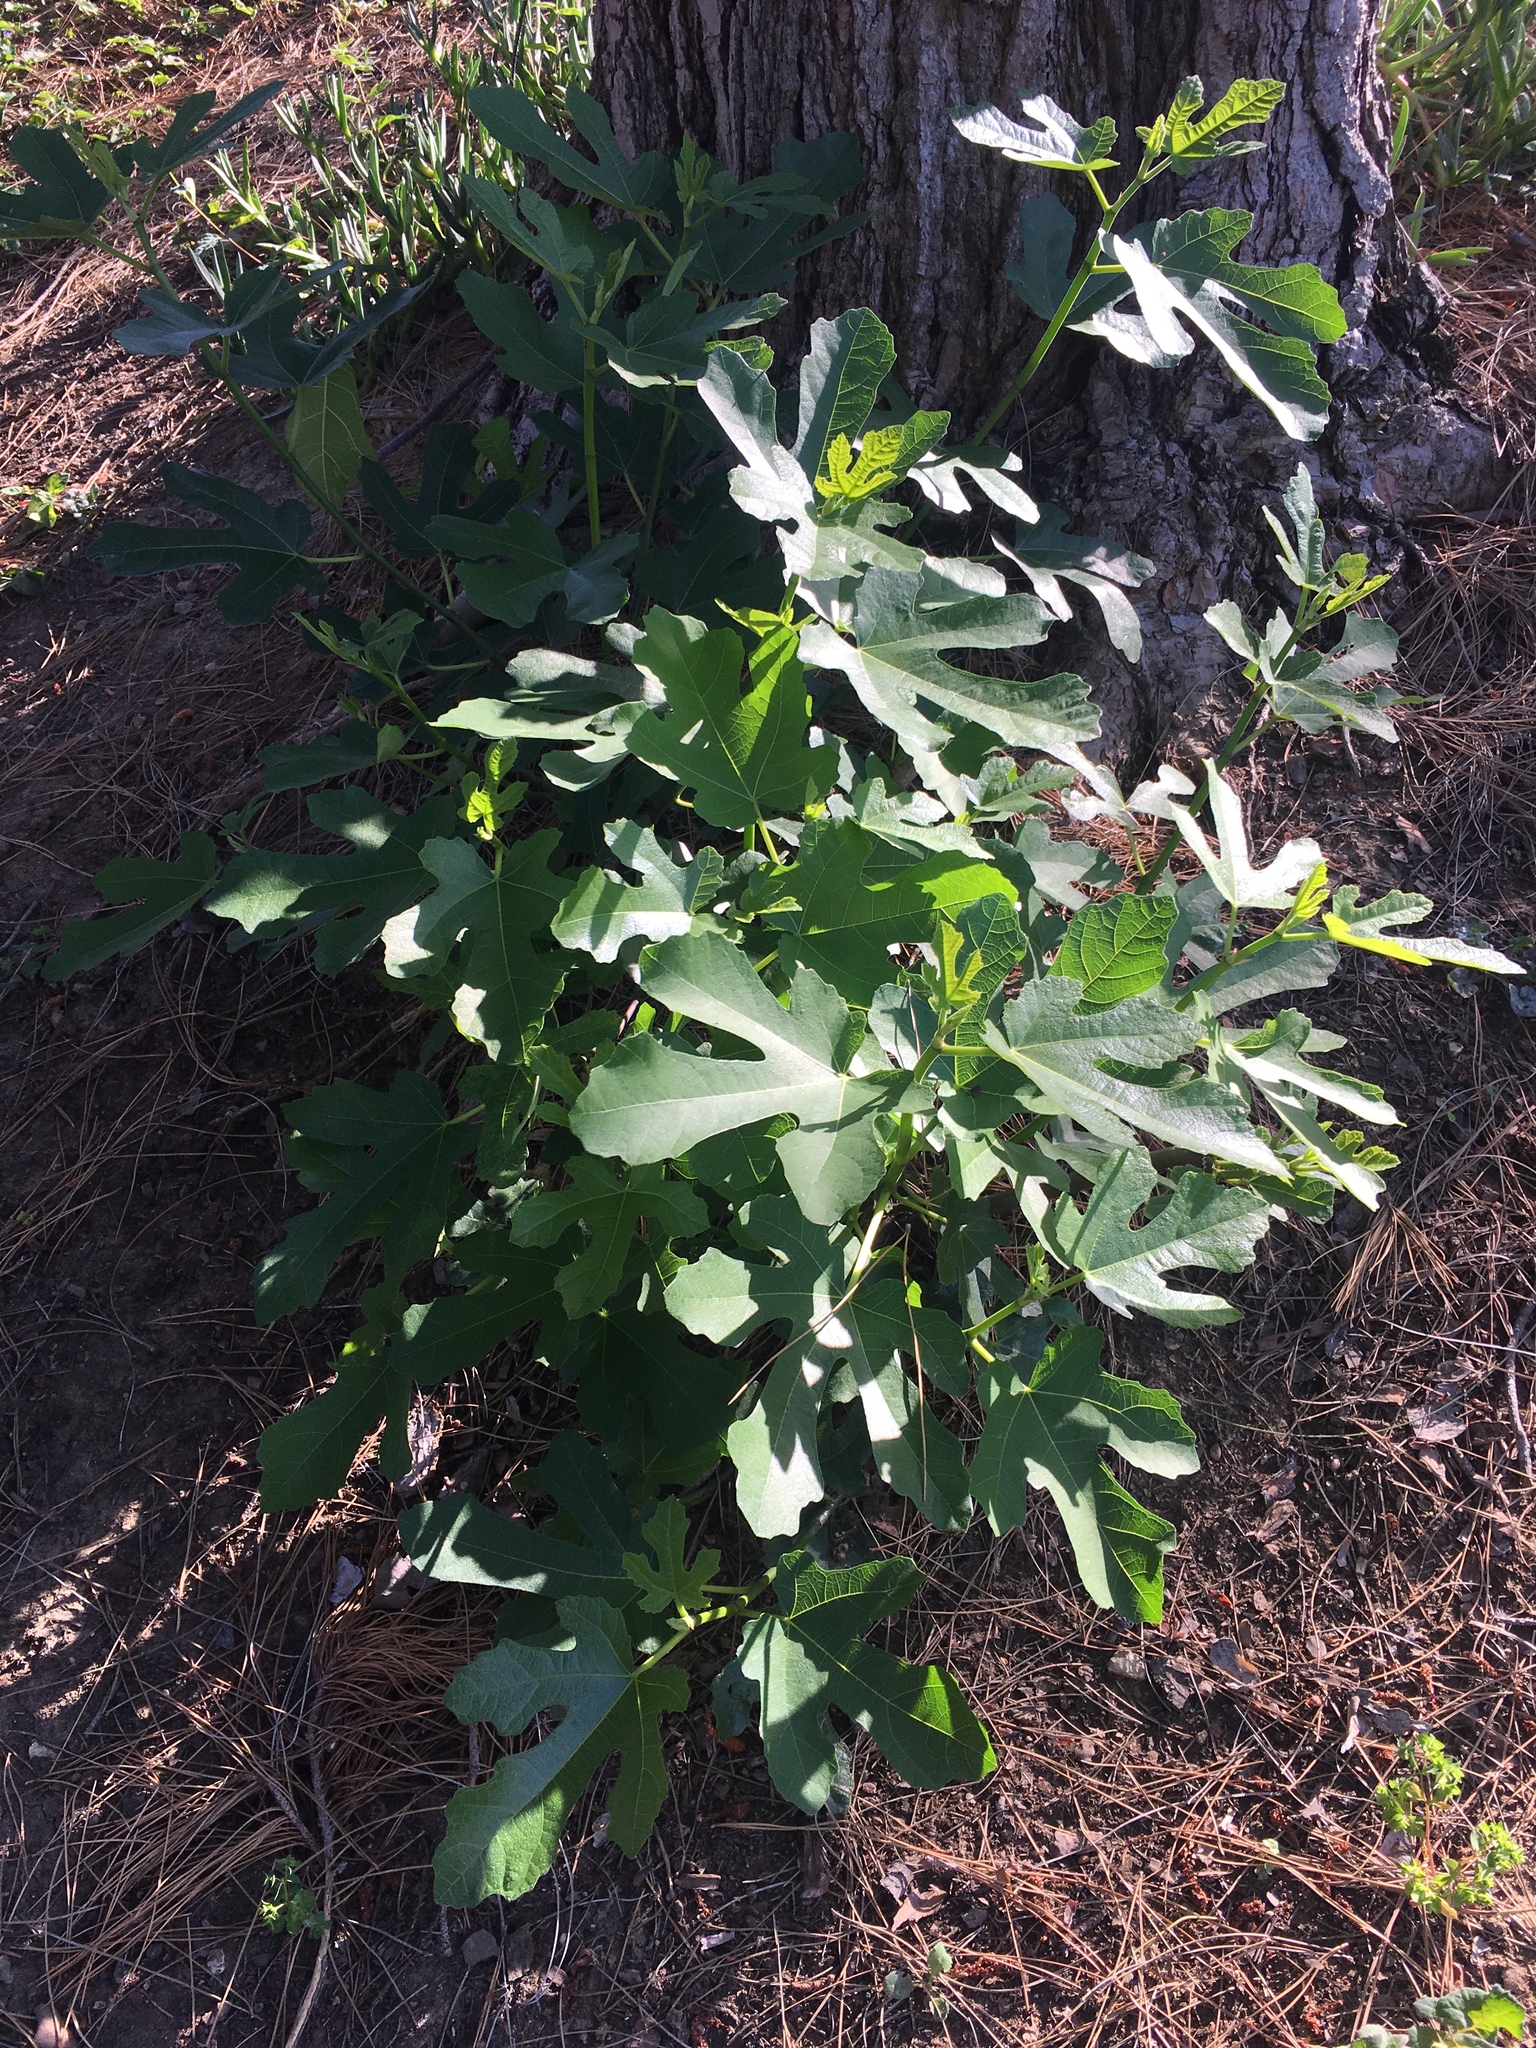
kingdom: Plantae
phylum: Tracheophyta
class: Magnoliopsida
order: Rosales
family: Moraceae
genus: Ficus
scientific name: Ficus carica
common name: Fig
